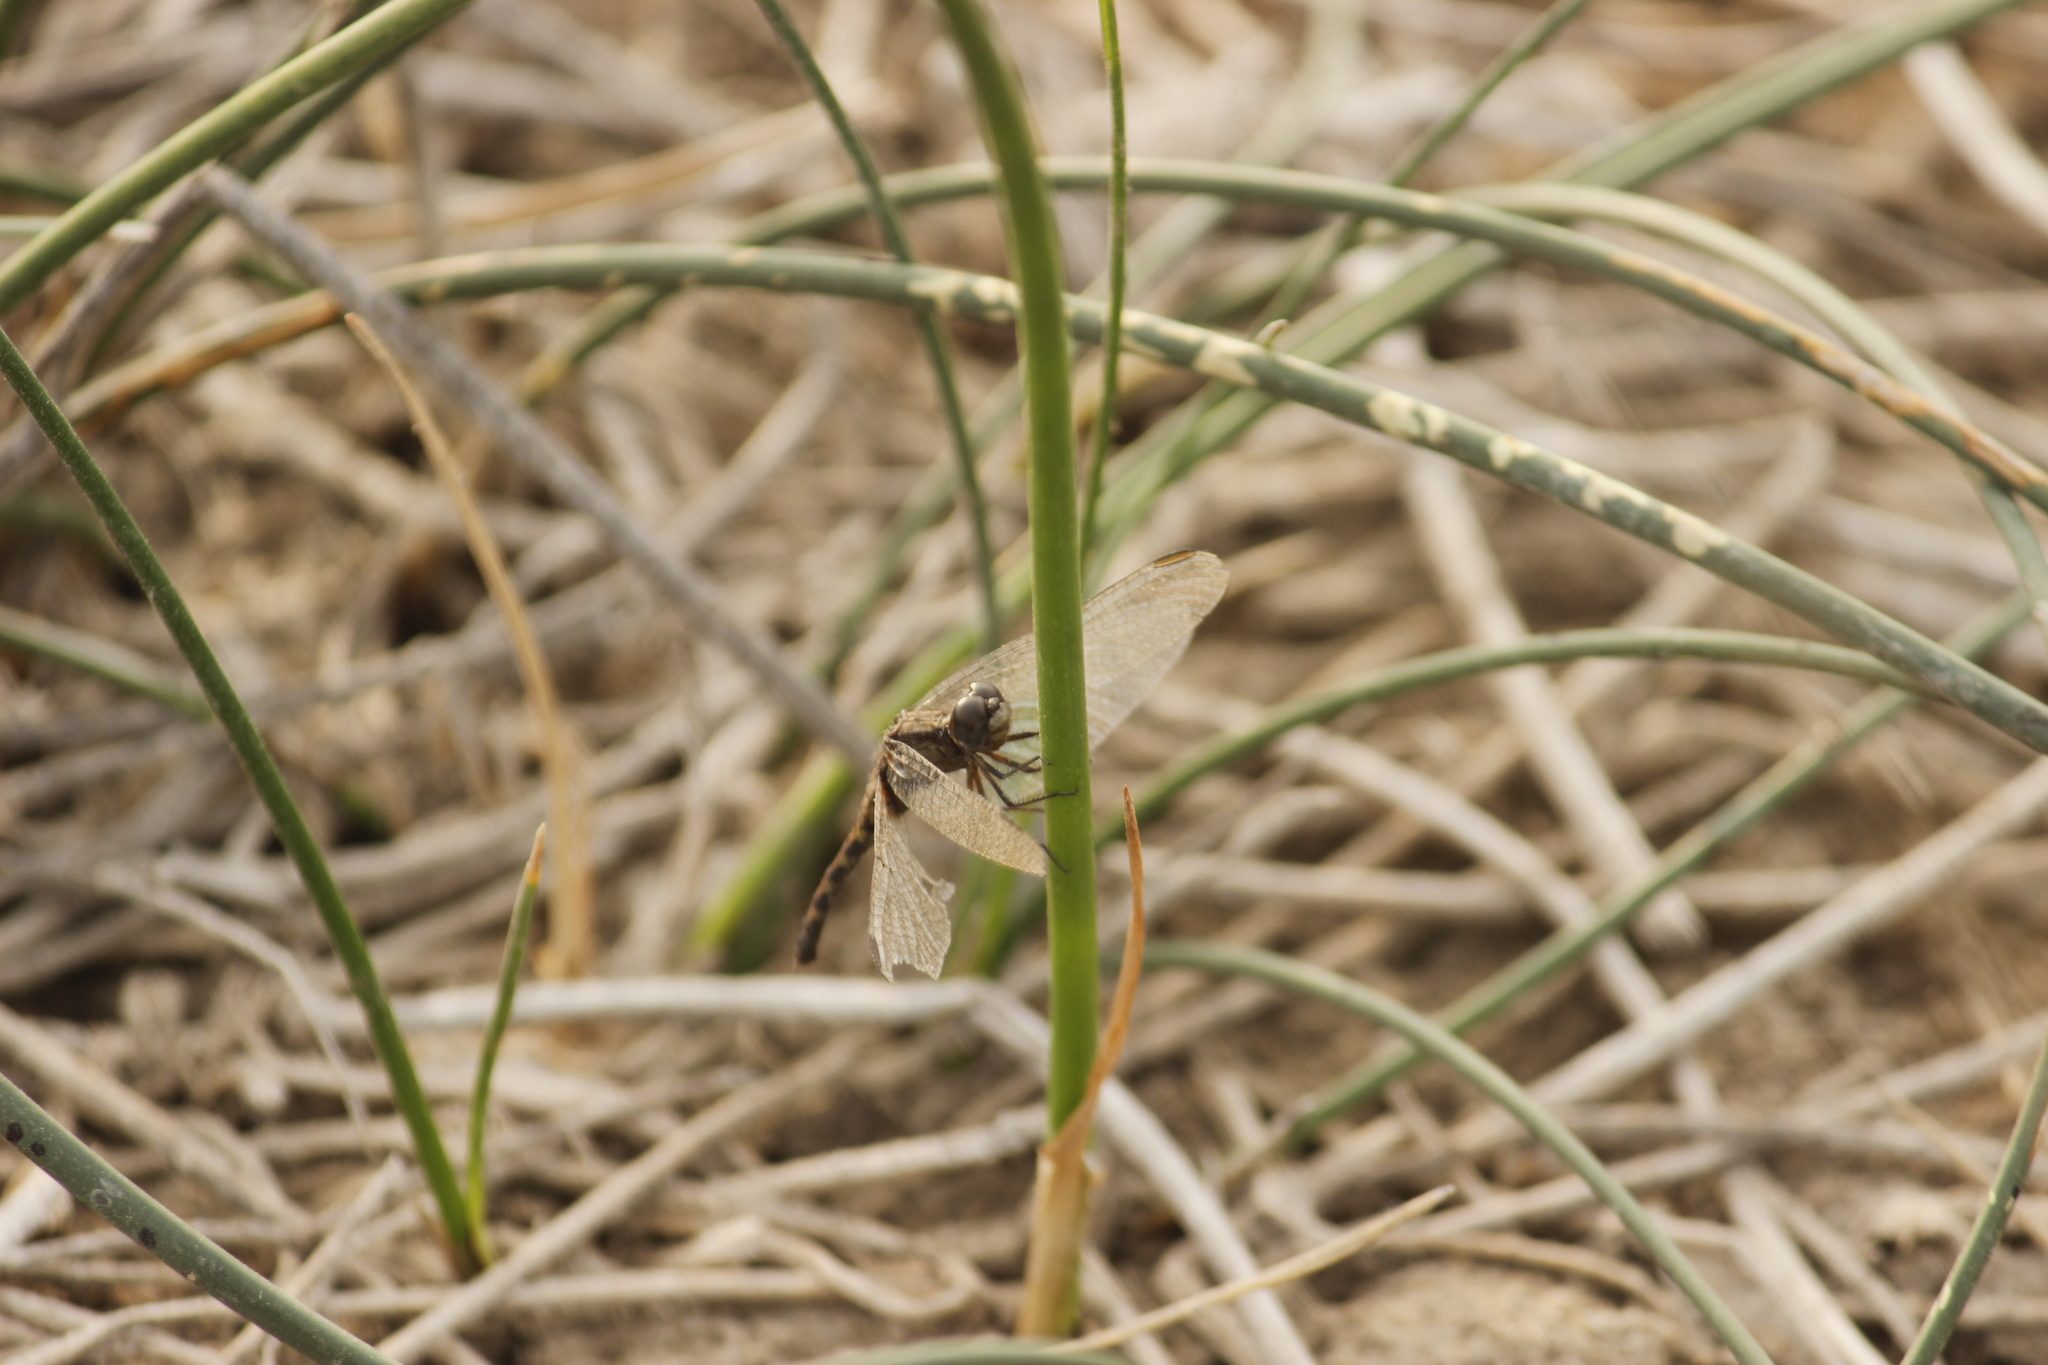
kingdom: Animalia
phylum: Arthropoda
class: Insecta
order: Odonata
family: Libellulidae
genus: Erythrodiplax
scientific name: Erythrodiplax cleopatra
